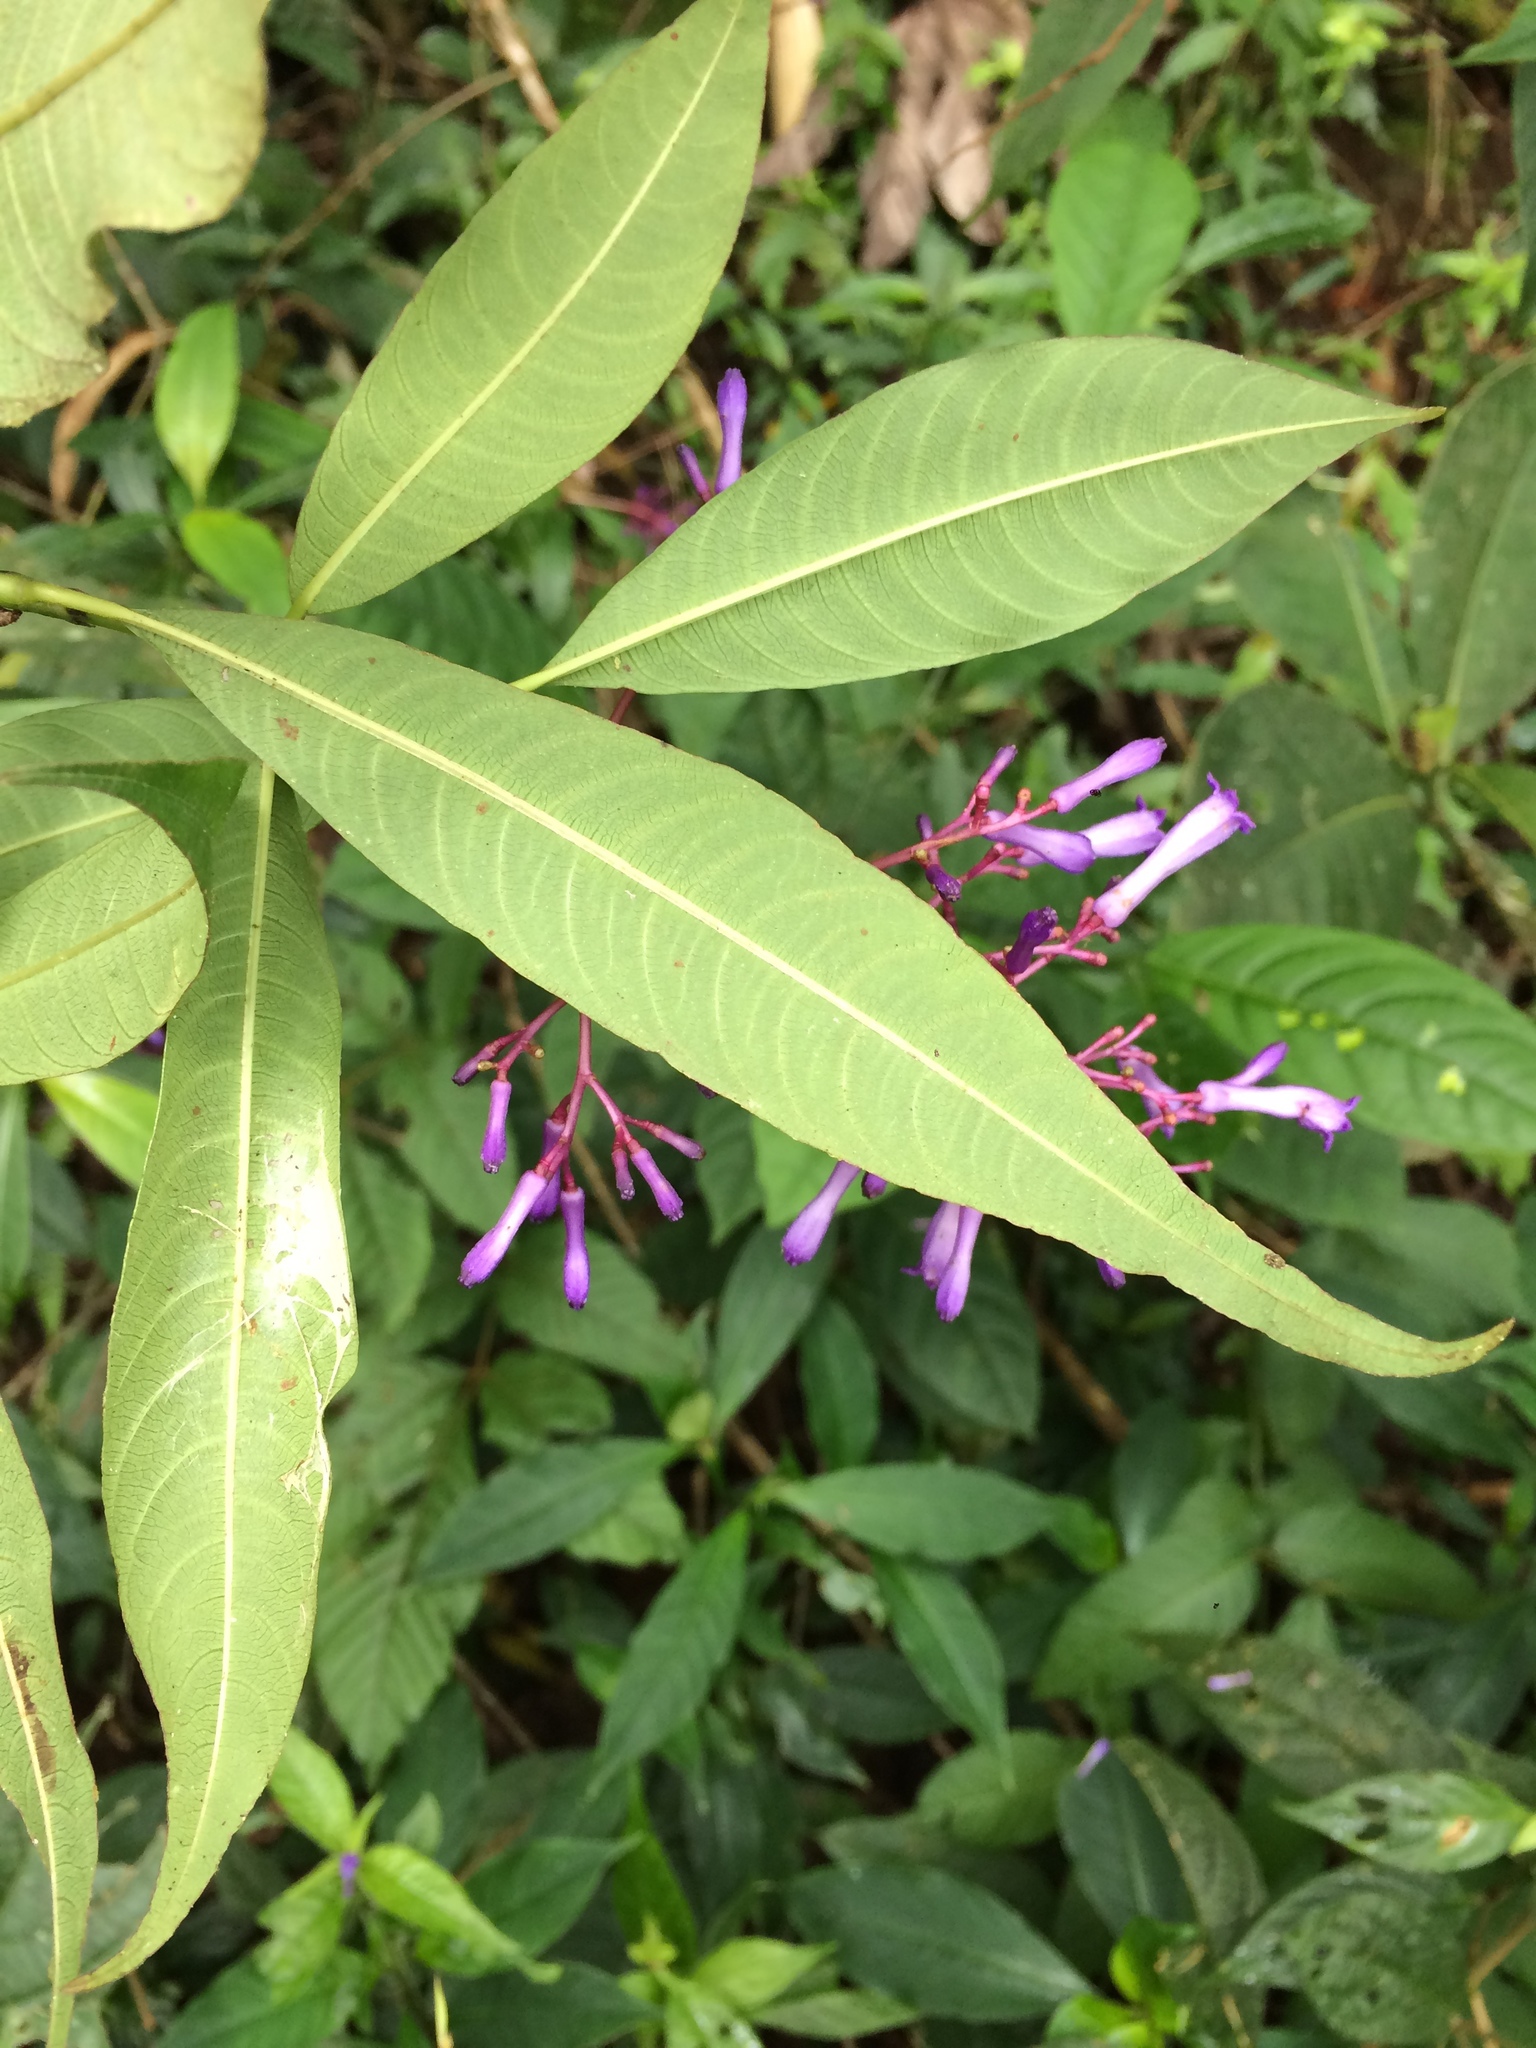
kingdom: Plantae
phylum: Tracheophyta
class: Magnoliopsida
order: Gentianales
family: Rubiaceae
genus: Palicourea
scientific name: Palicourea angustifolia
